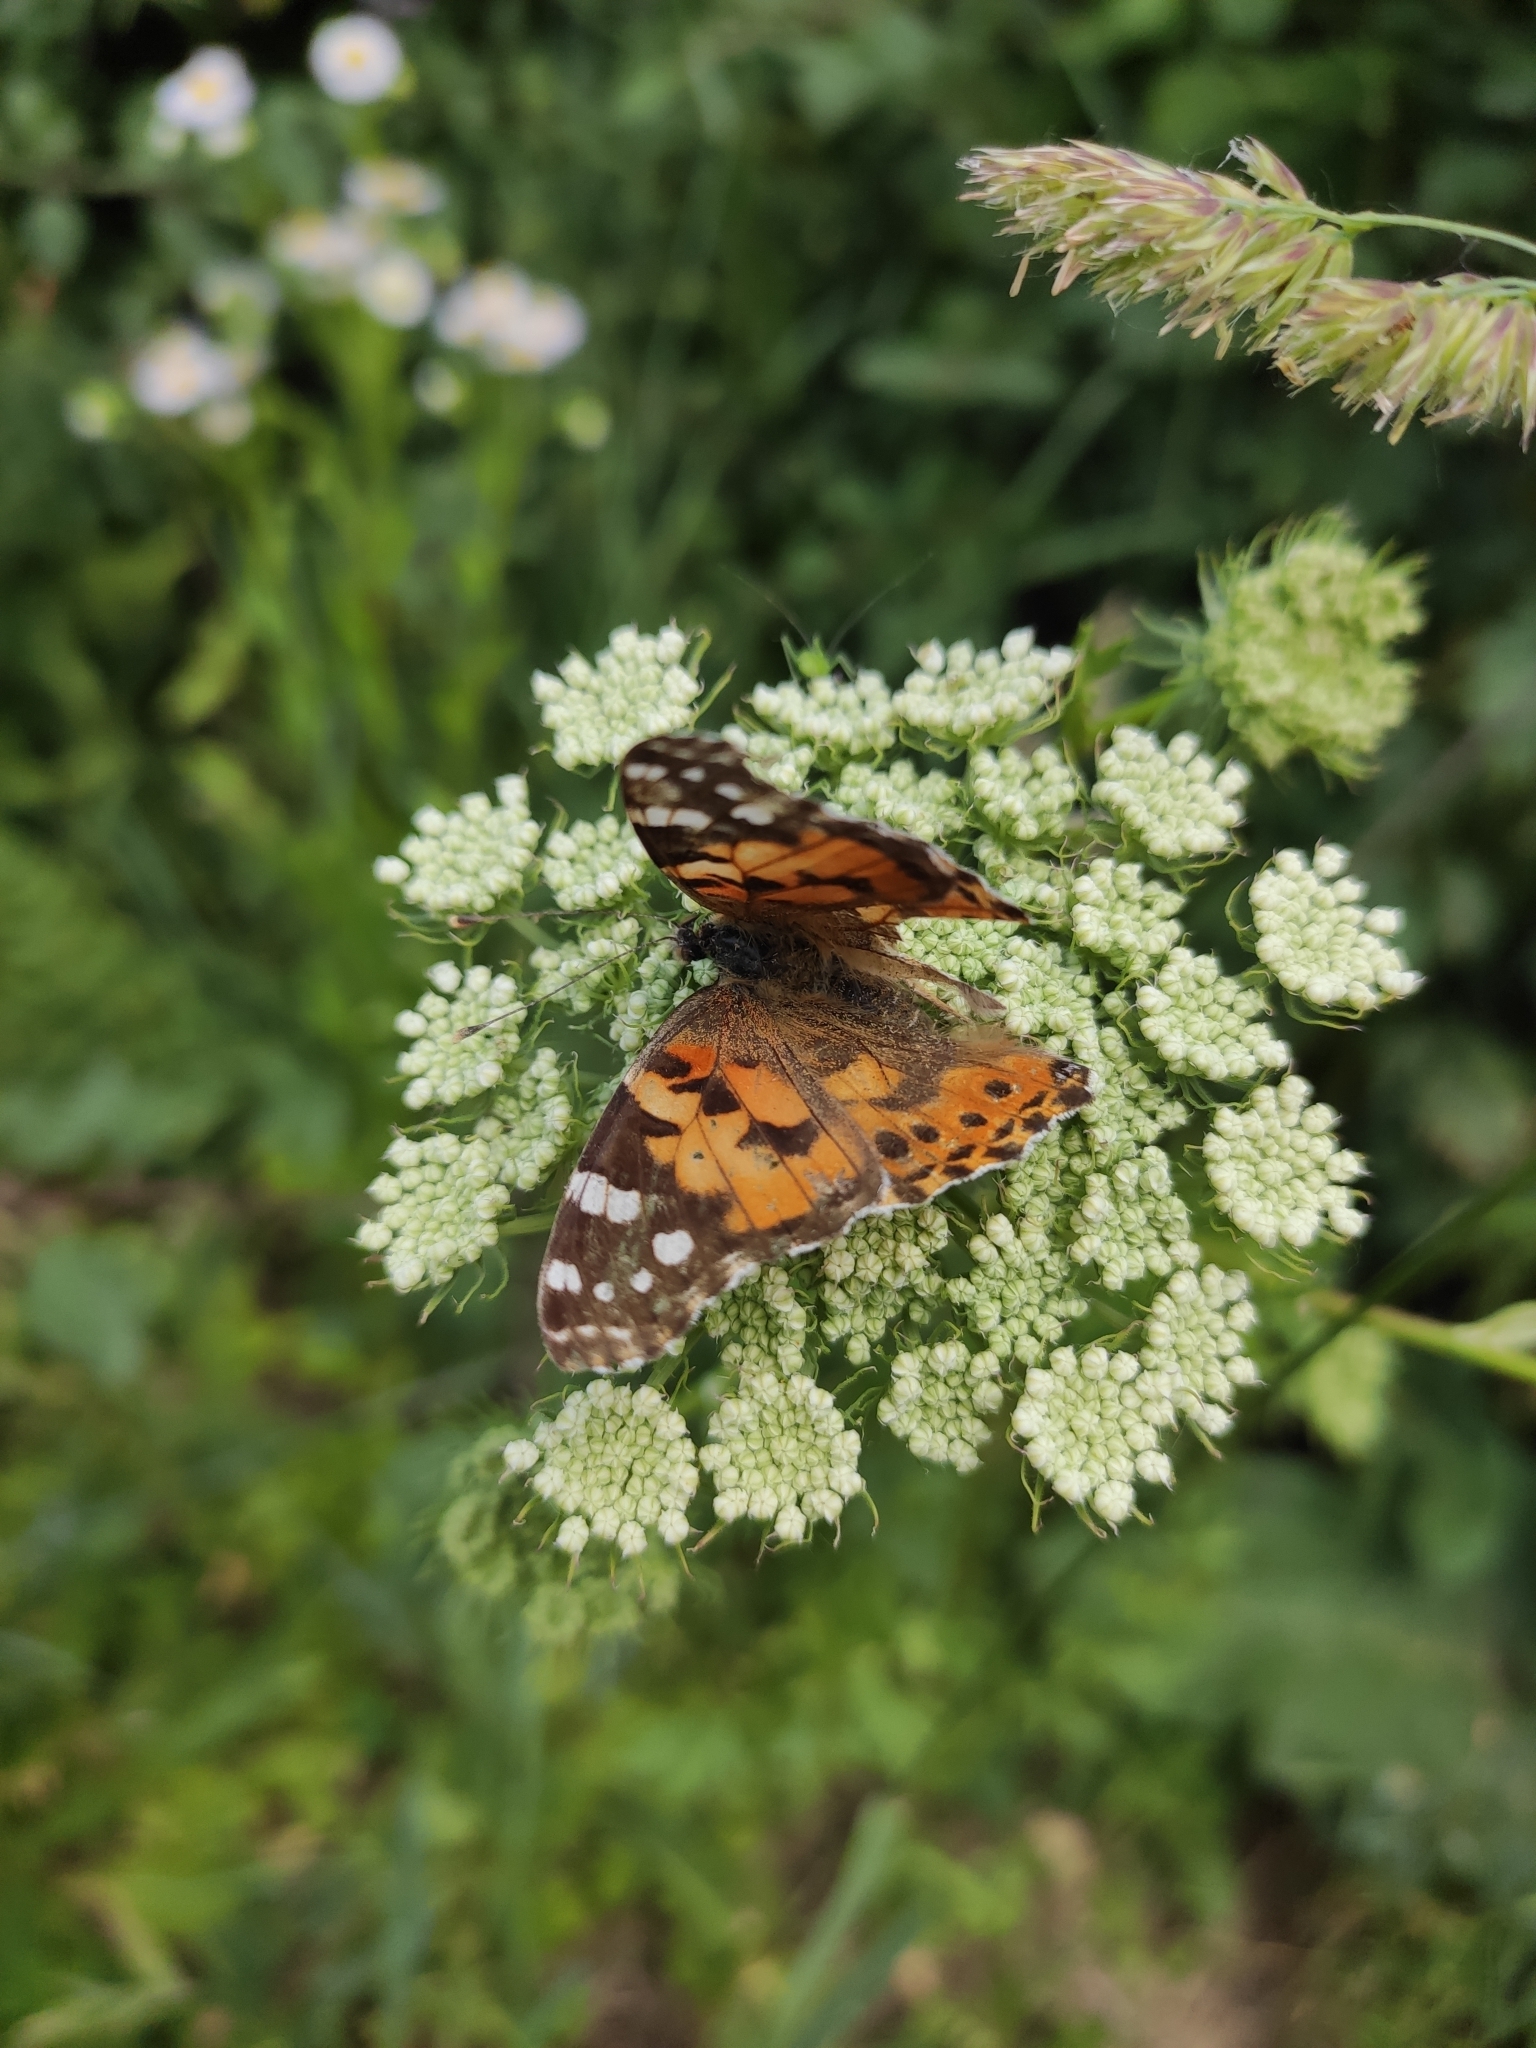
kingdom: Animalia
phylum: Arthropoda
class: Insecta
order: Lepidoptera
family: Nymphalidae
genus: Vanessa
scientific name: Vanessa cardui
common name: Painted lady
